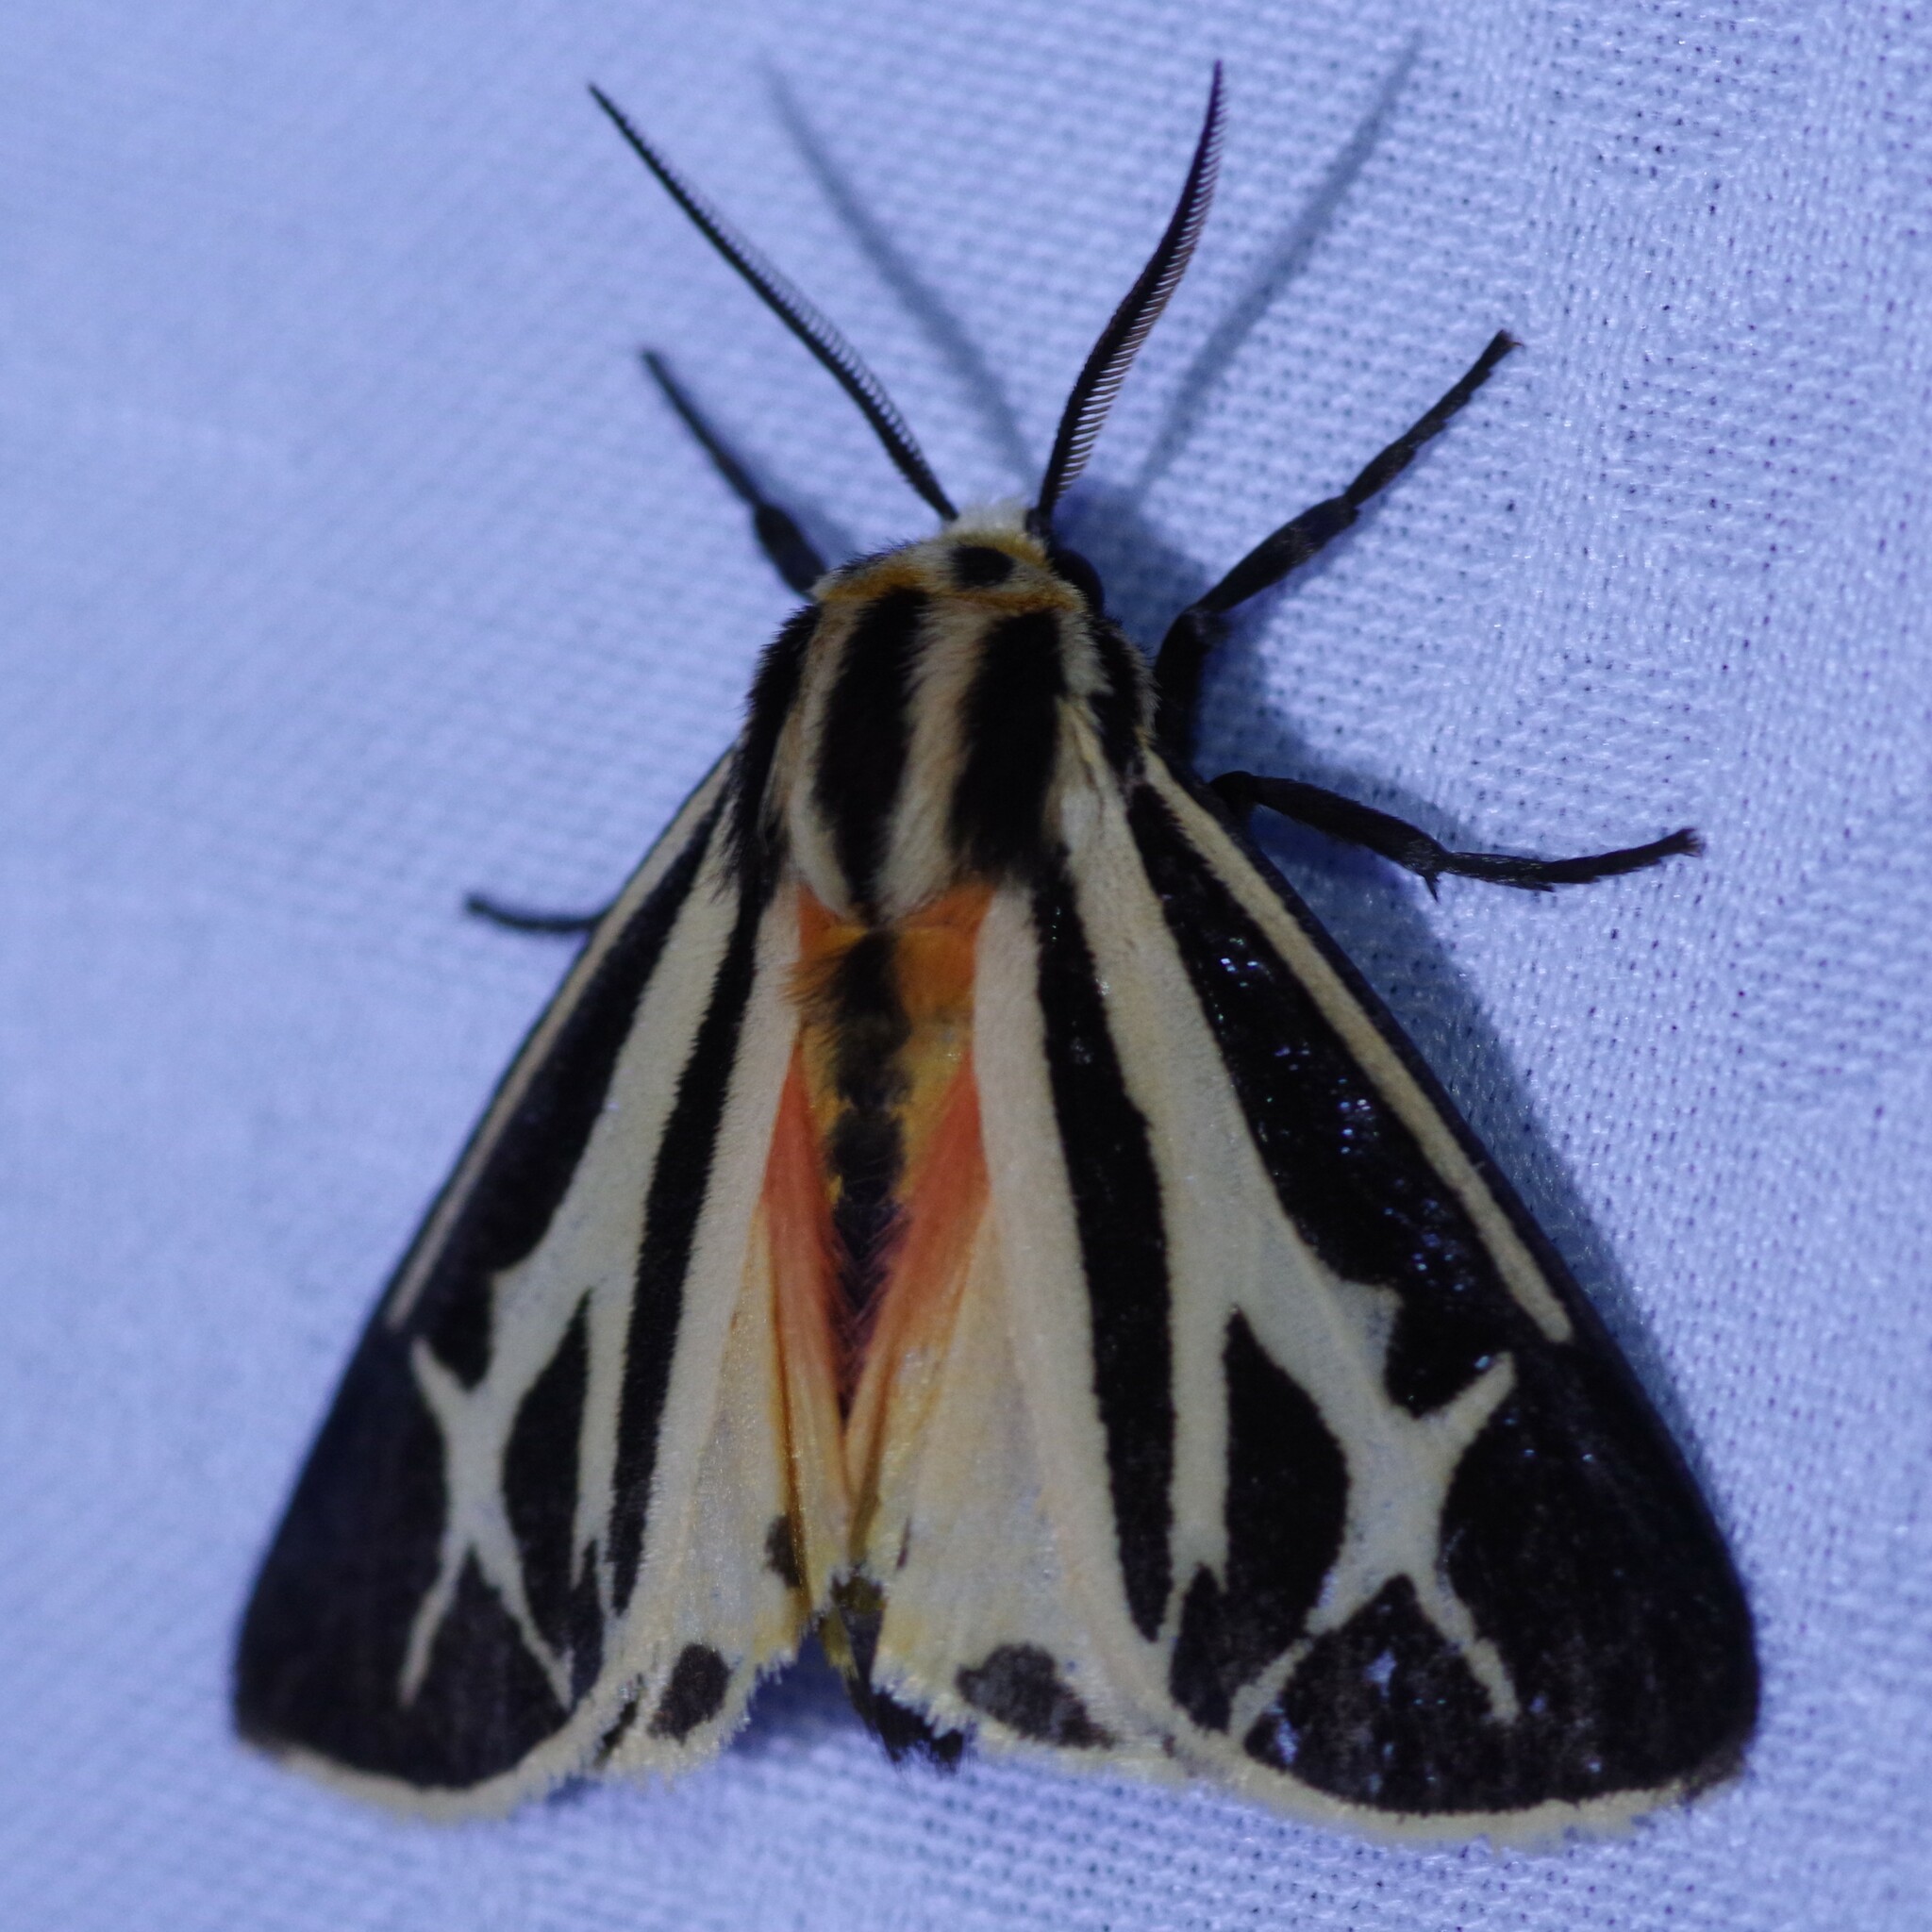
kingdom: Animalia
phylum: Arthropoda
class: Insecta
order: Lepidoptera
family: Erebidae
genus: Apantesis
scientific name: Apantesis phalerata
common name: Harnessed tiger moth
